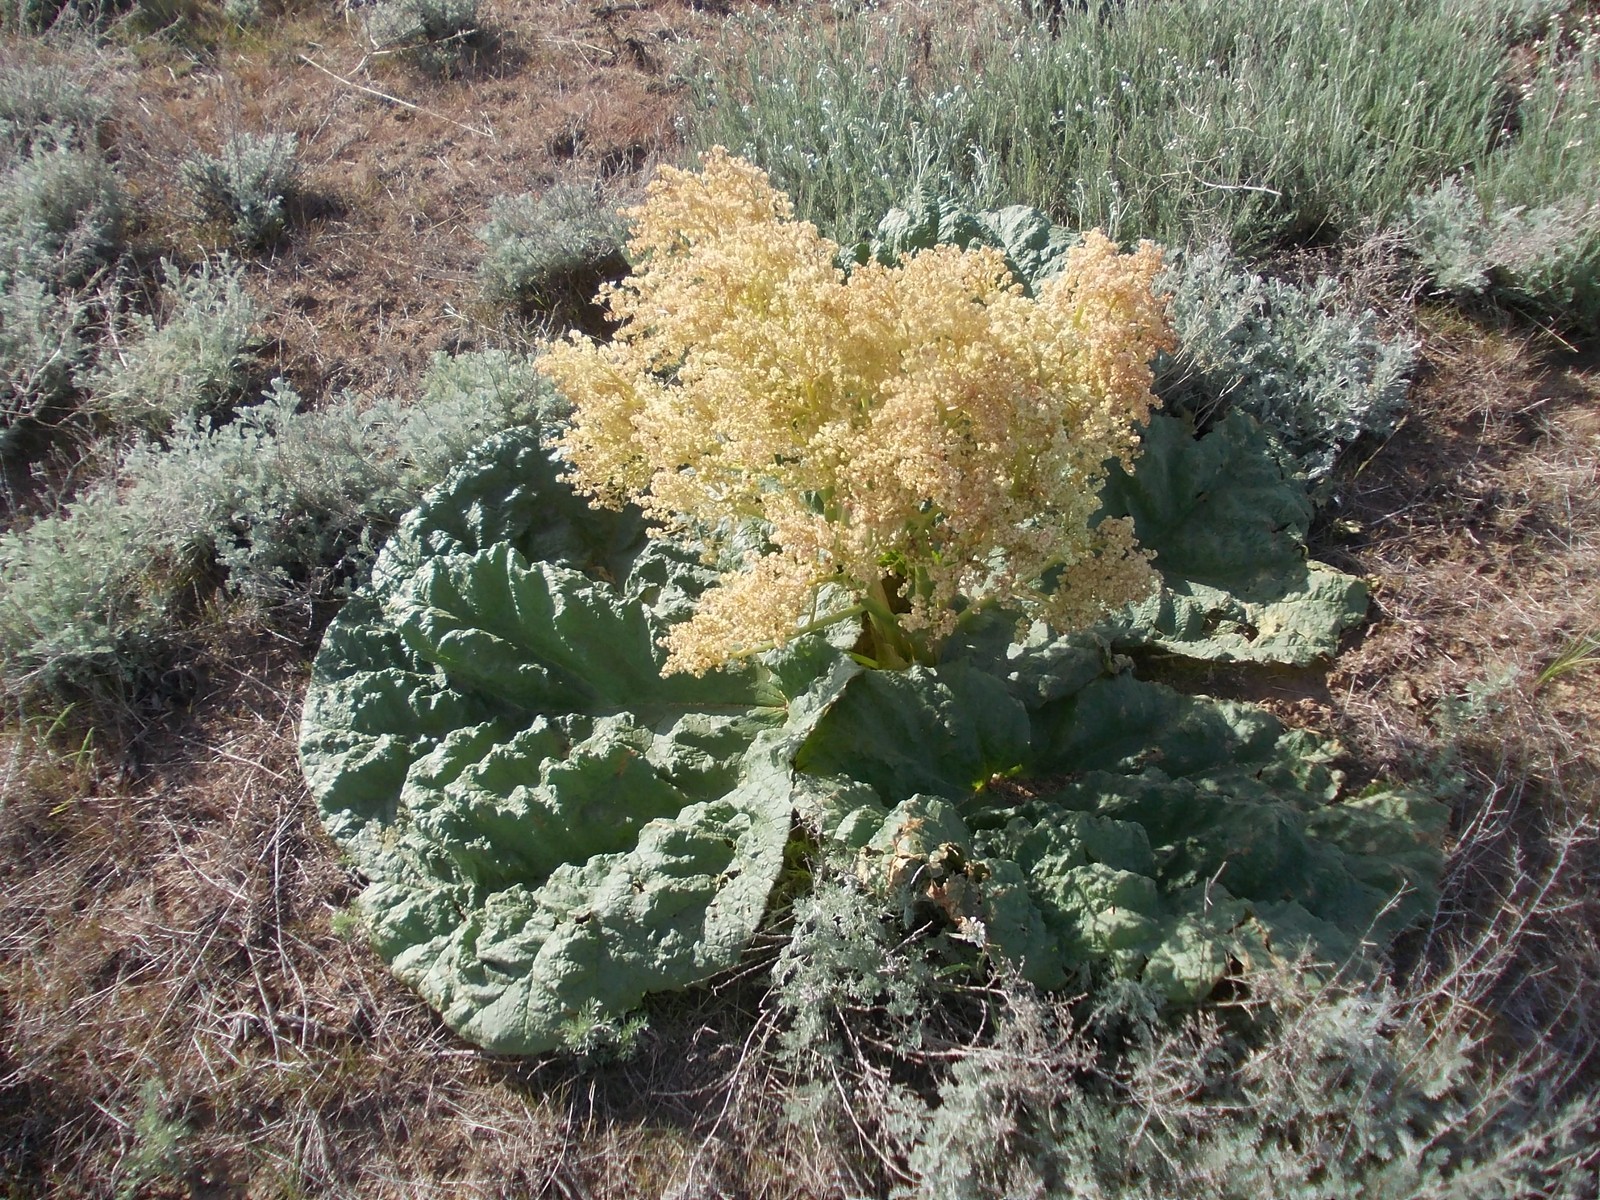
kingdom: Plantae
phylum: Tracheophyta
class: Magnoliopsida
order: Caryophyllales
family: Polygonaceae
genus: Rheum
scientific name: Rheum tataricum
